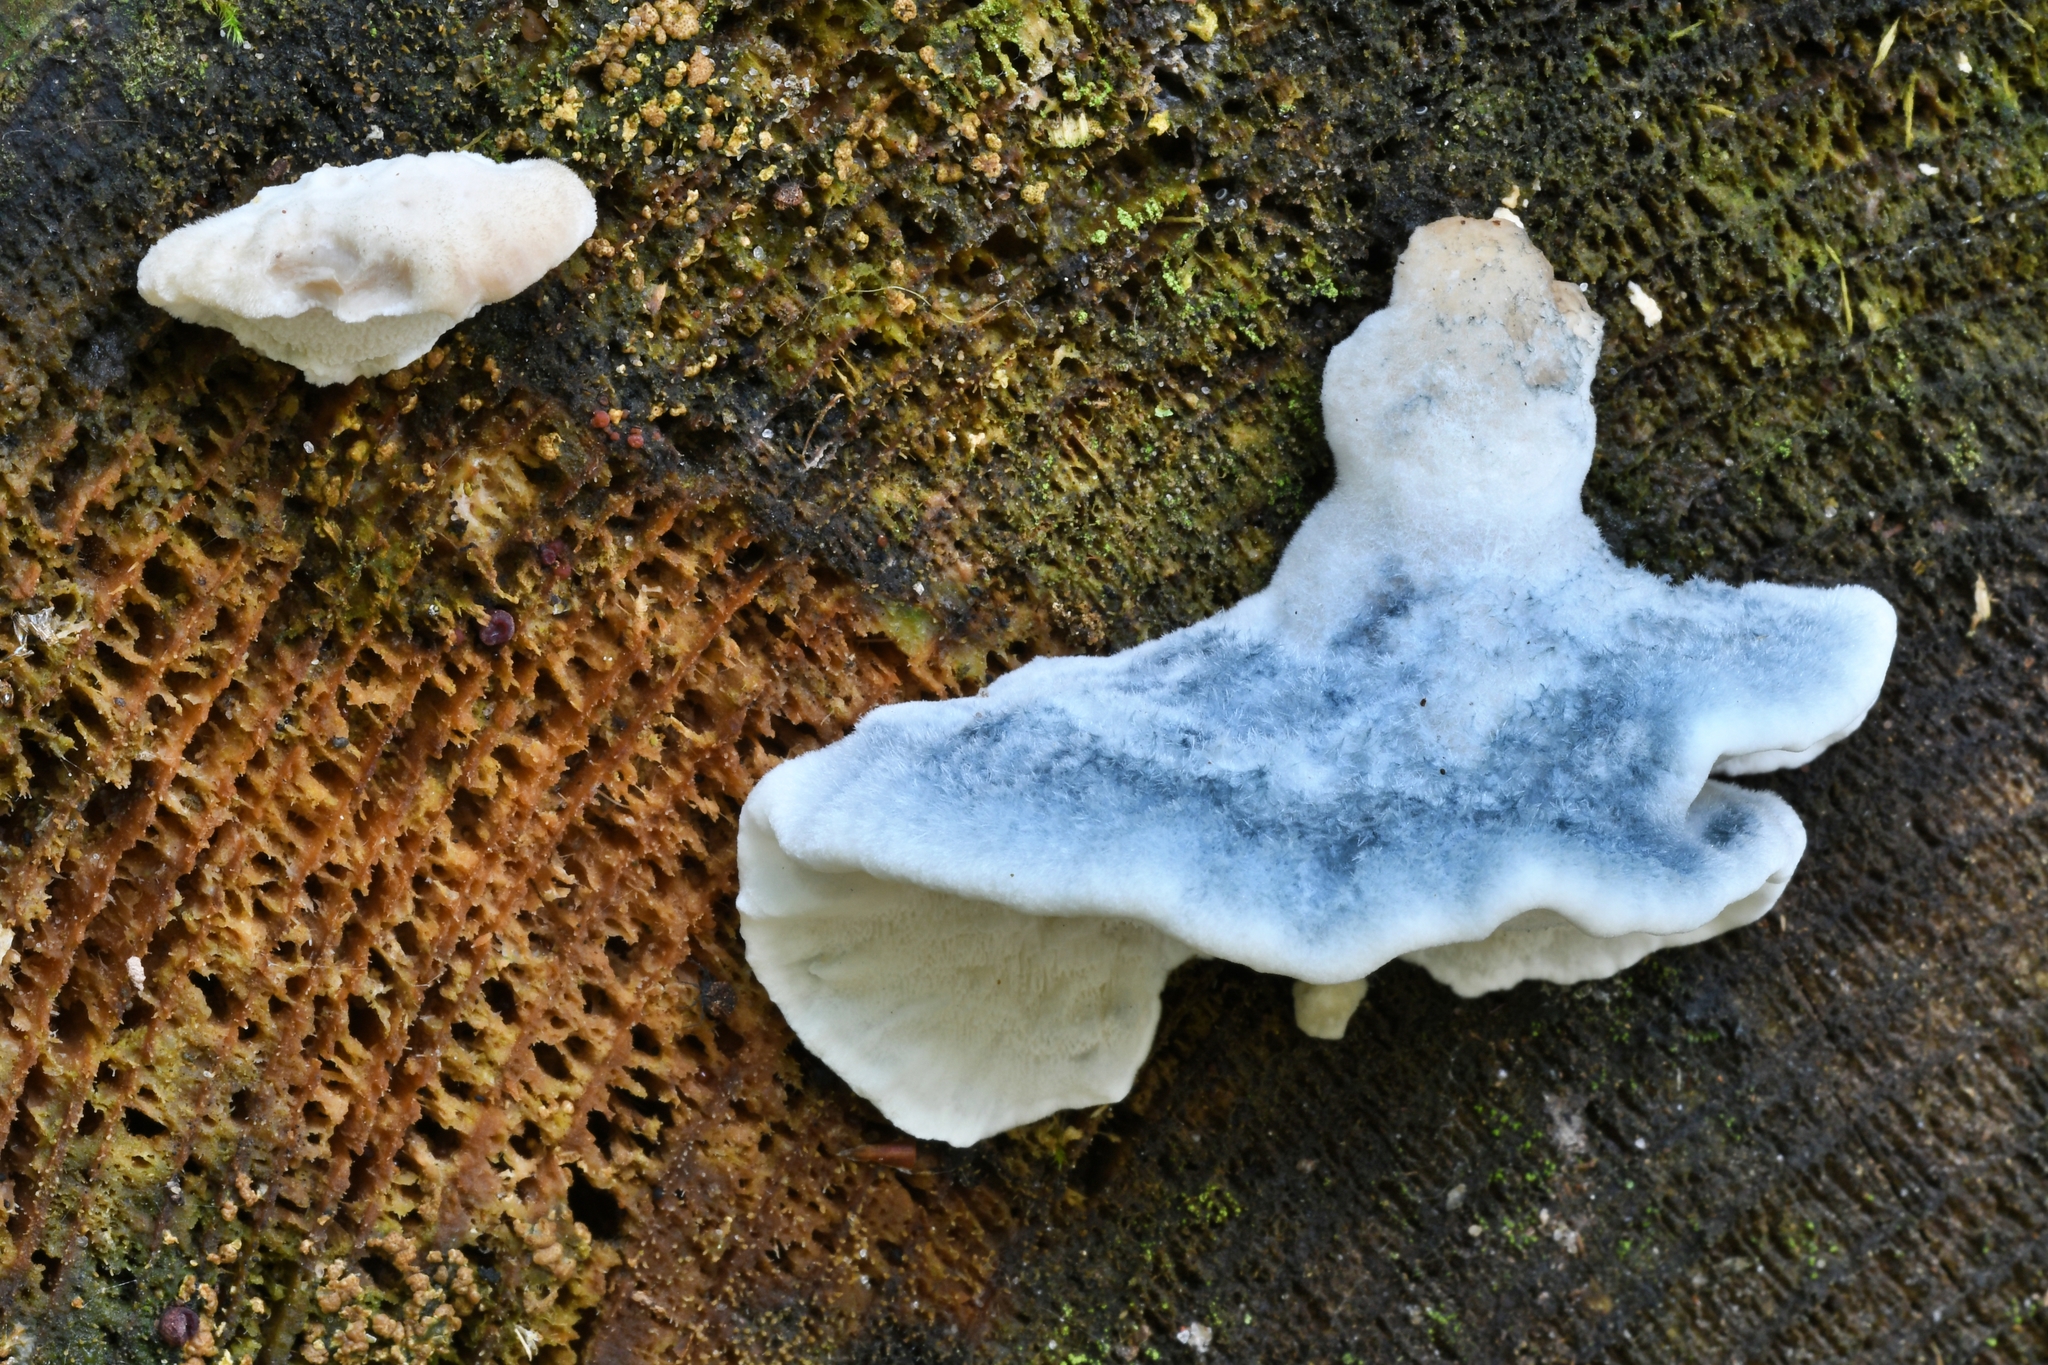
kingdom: Fungi
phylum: Basidiomycota
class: Agaricomycetes
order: Polyporales
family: Polyporaceae
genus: Cyanosporus
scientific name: Cyanosporus caesius
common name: Blue cheese polypore
